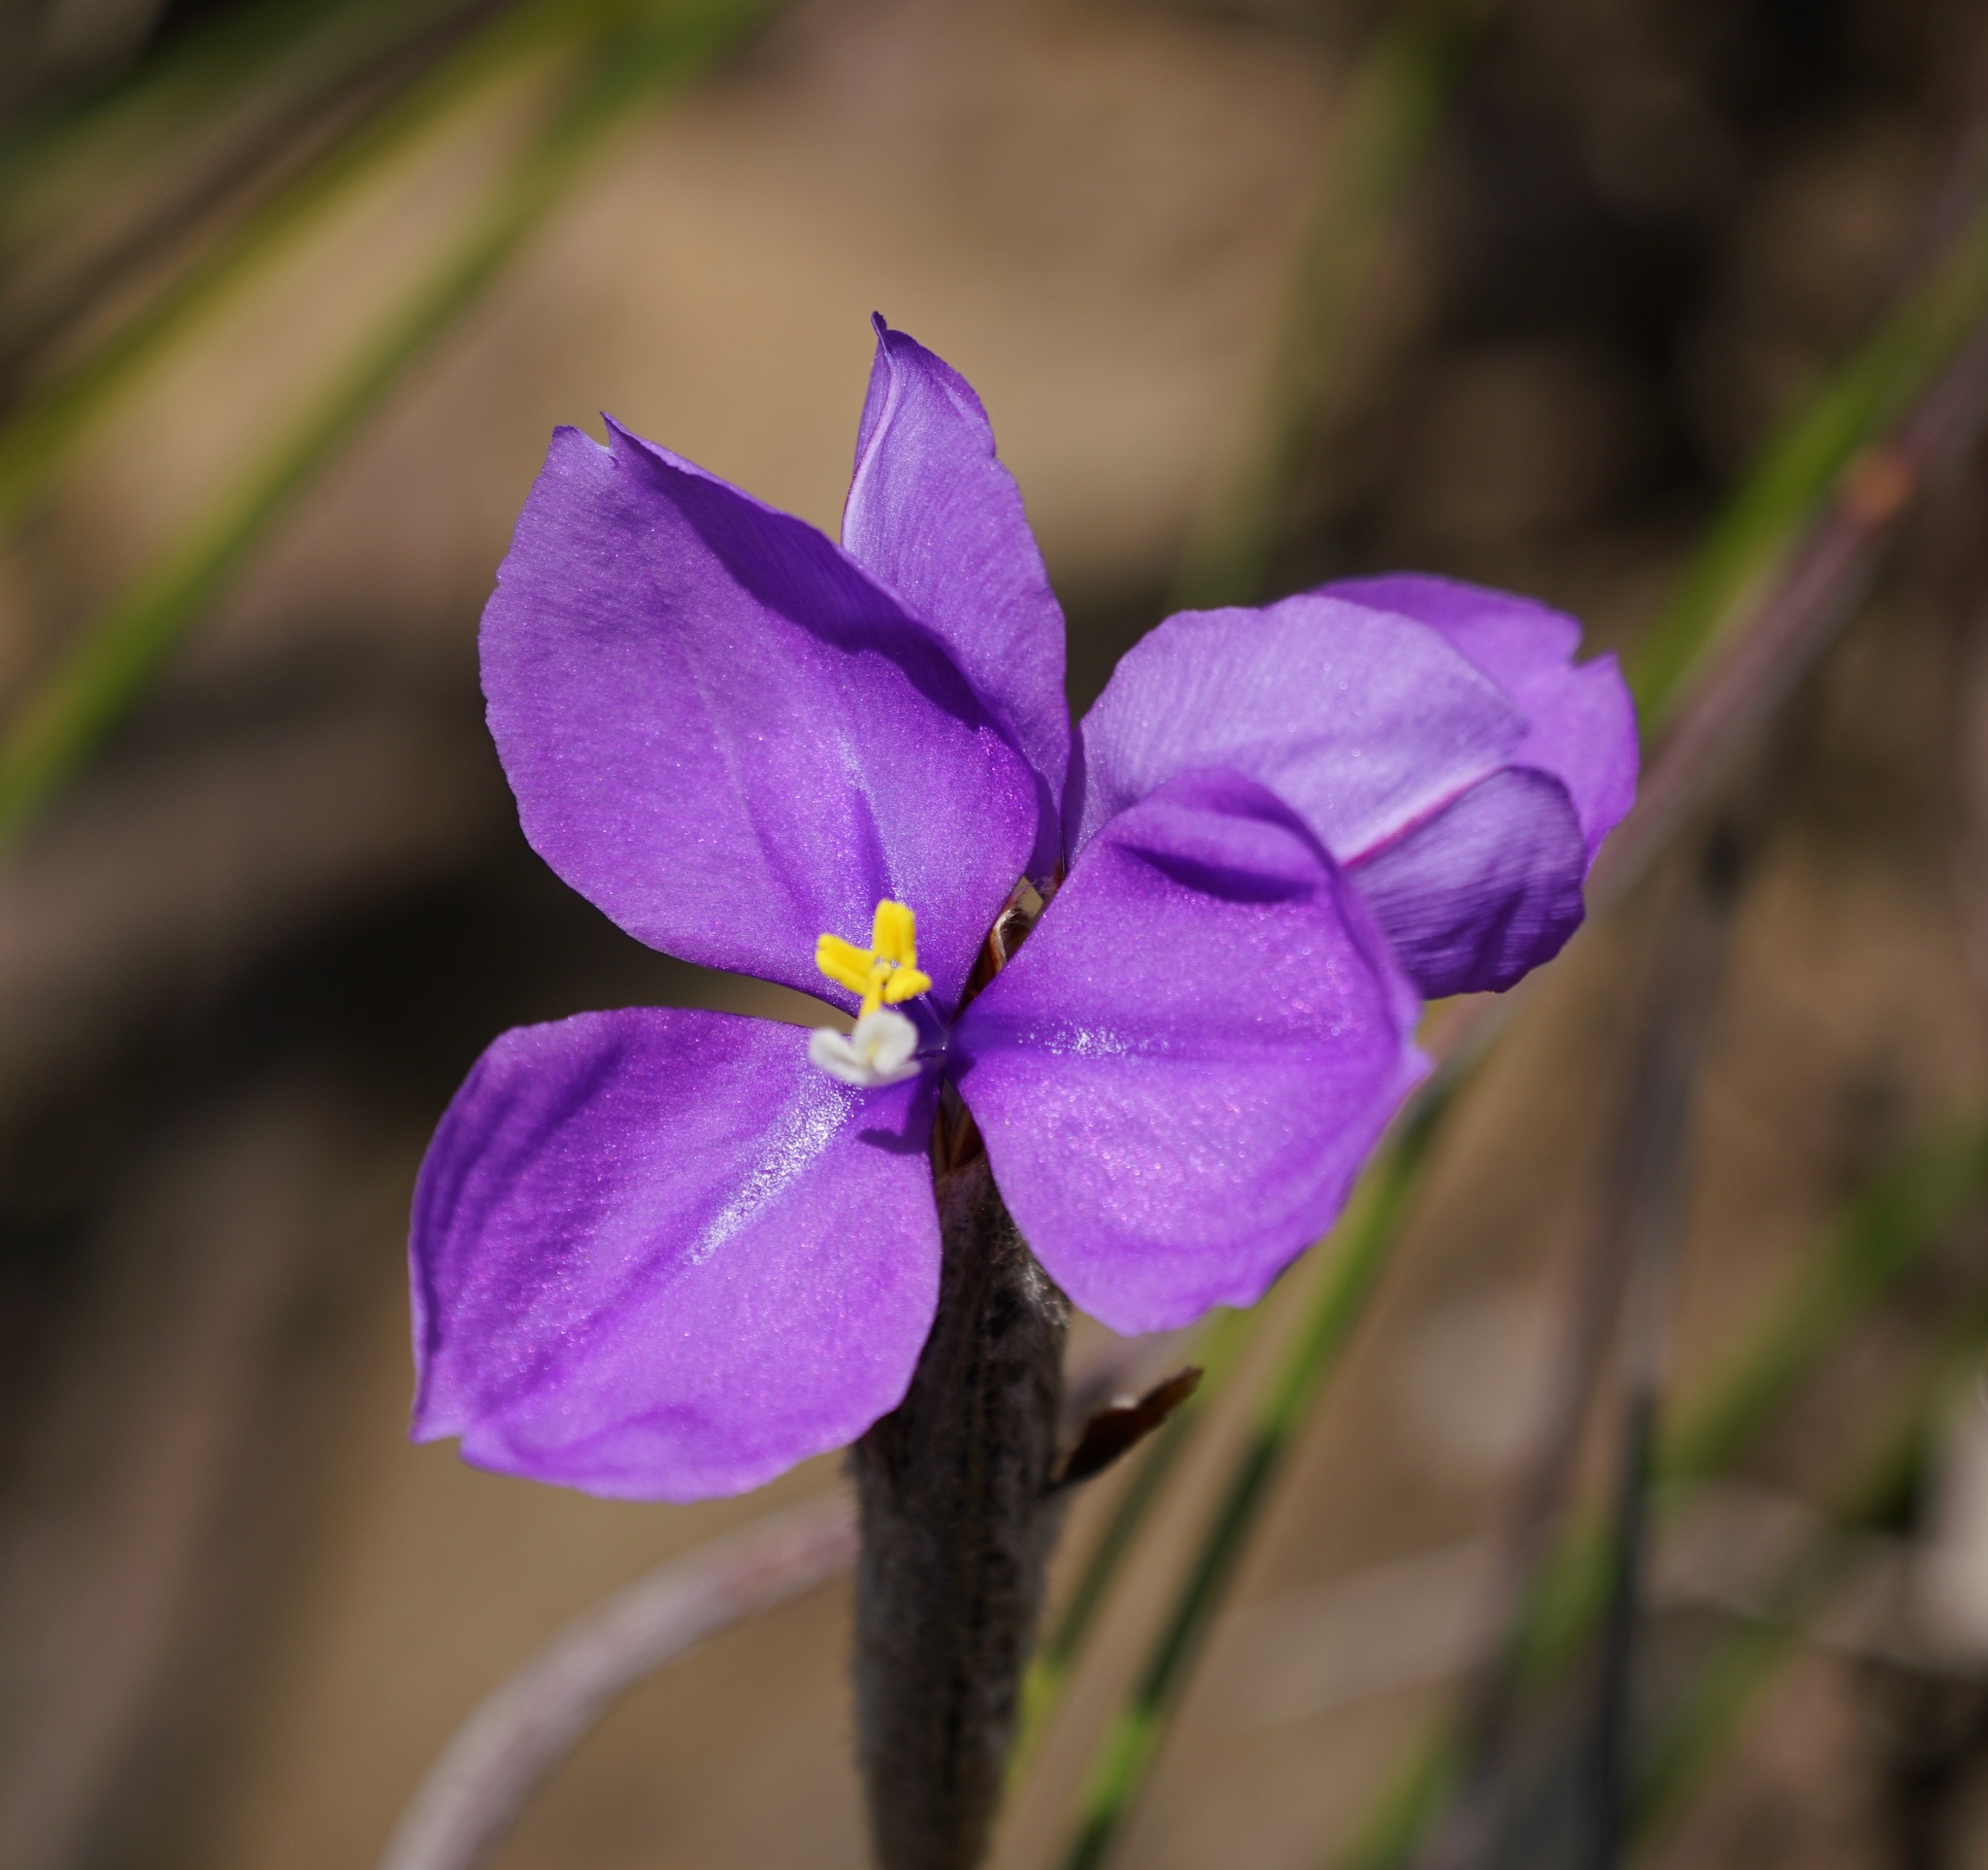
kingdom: Plantae
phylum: Tracheophyta
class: Liliopsida
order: Asparagales
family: Iridaceae
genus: Patersonia
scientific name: Patersonia sericea
